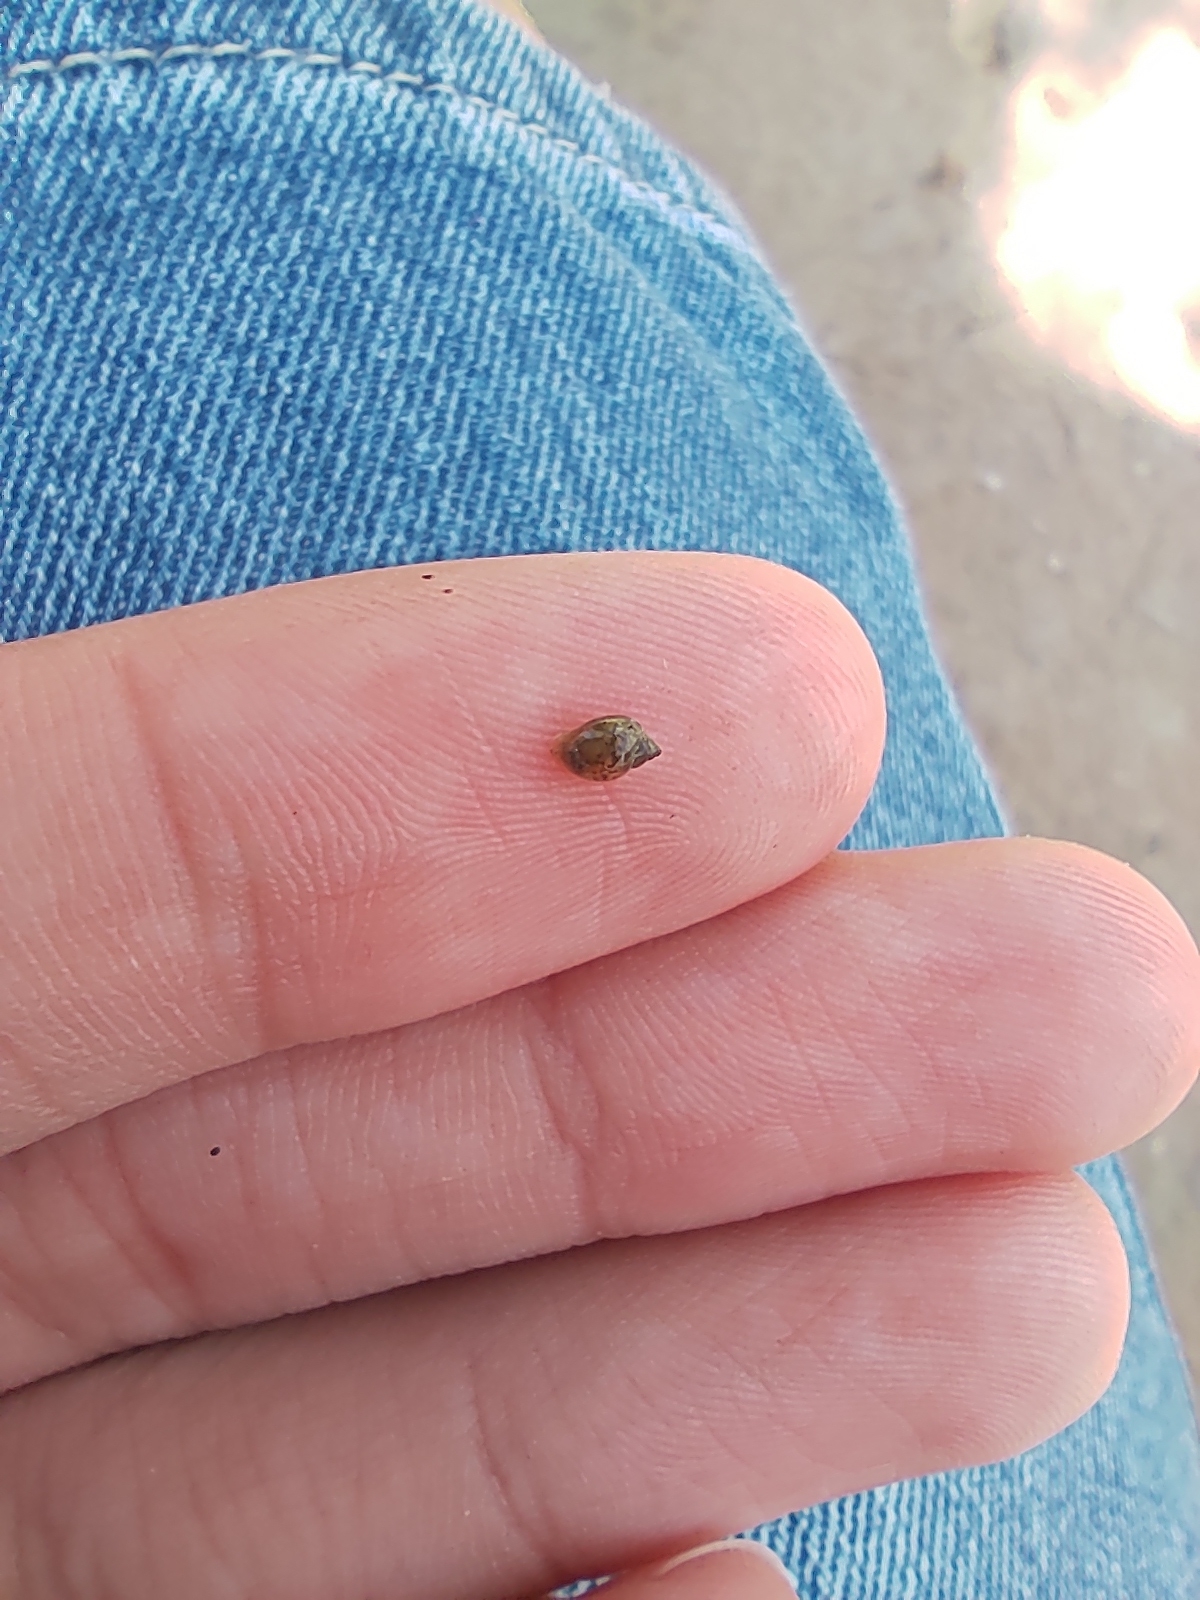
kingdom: Animalia
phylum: Mollusca
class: Gastropoda
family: Physidae
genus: Physella
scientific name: Physella acuta
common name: European physa
